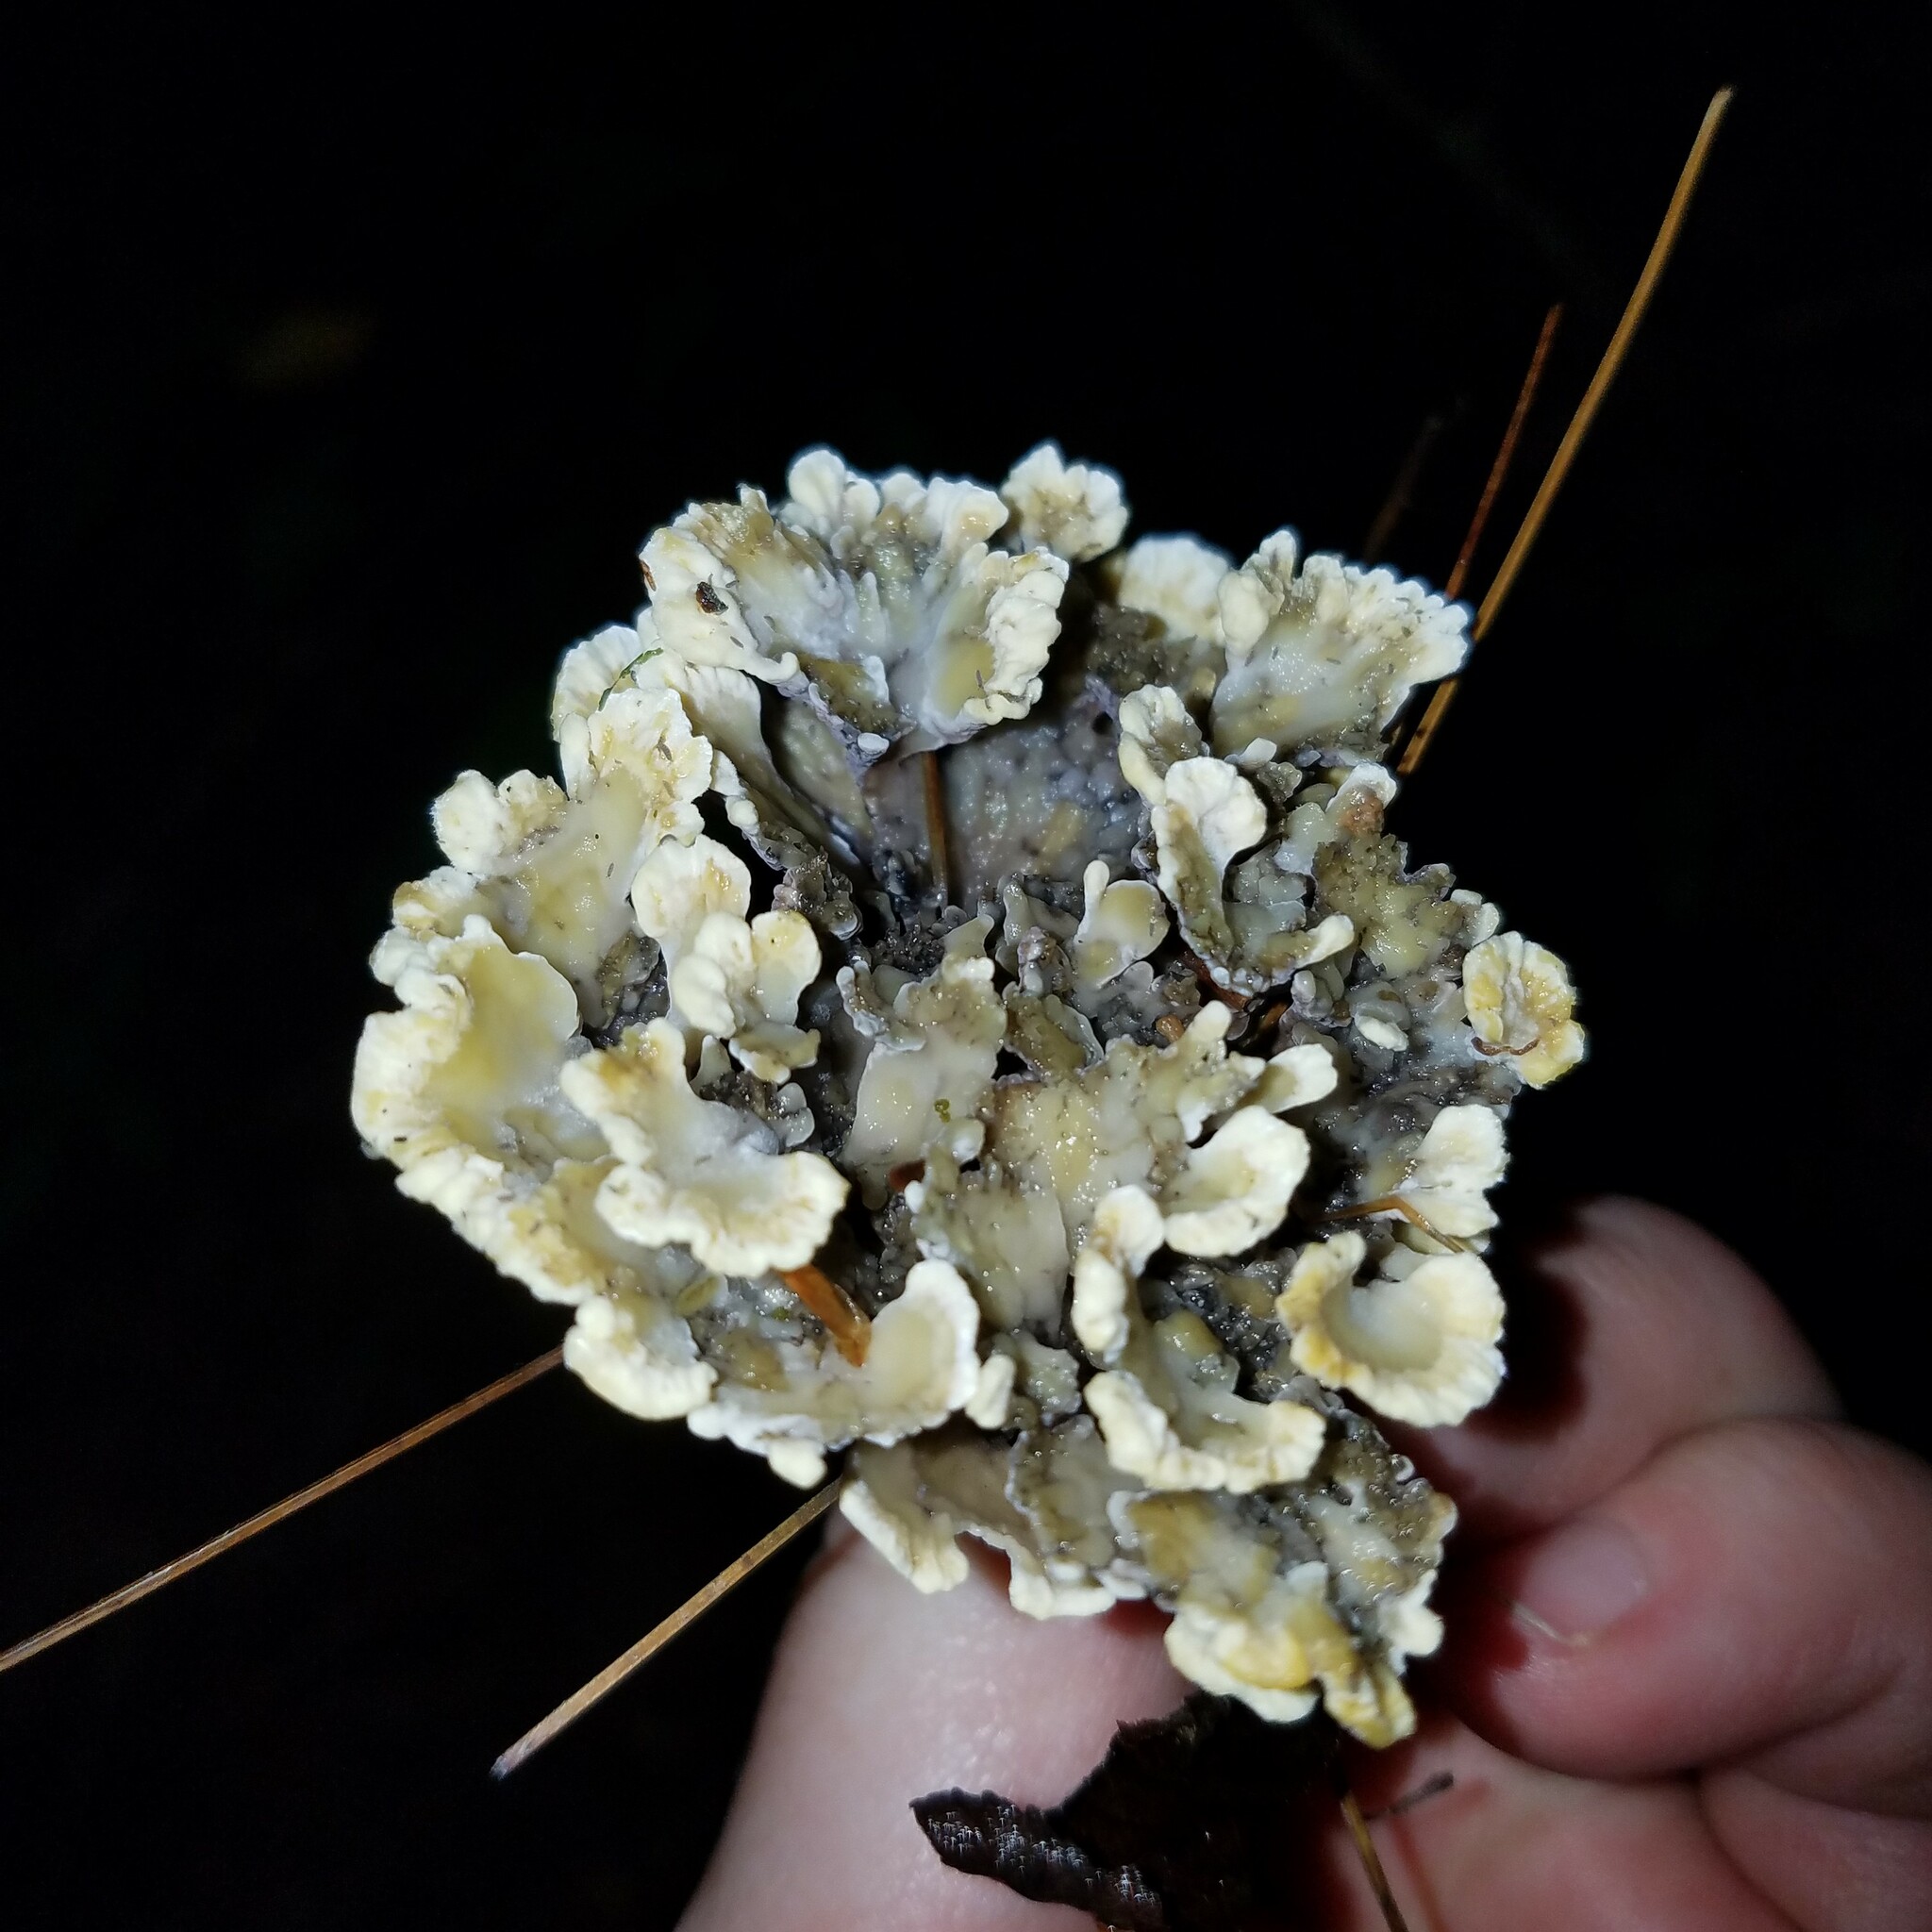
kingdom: Fungi
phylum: Basidiomycota
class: Agaricomycetes
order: Thelephorales
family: Thelephoraceae
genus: Thelephora
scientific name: Thelephora vialis
